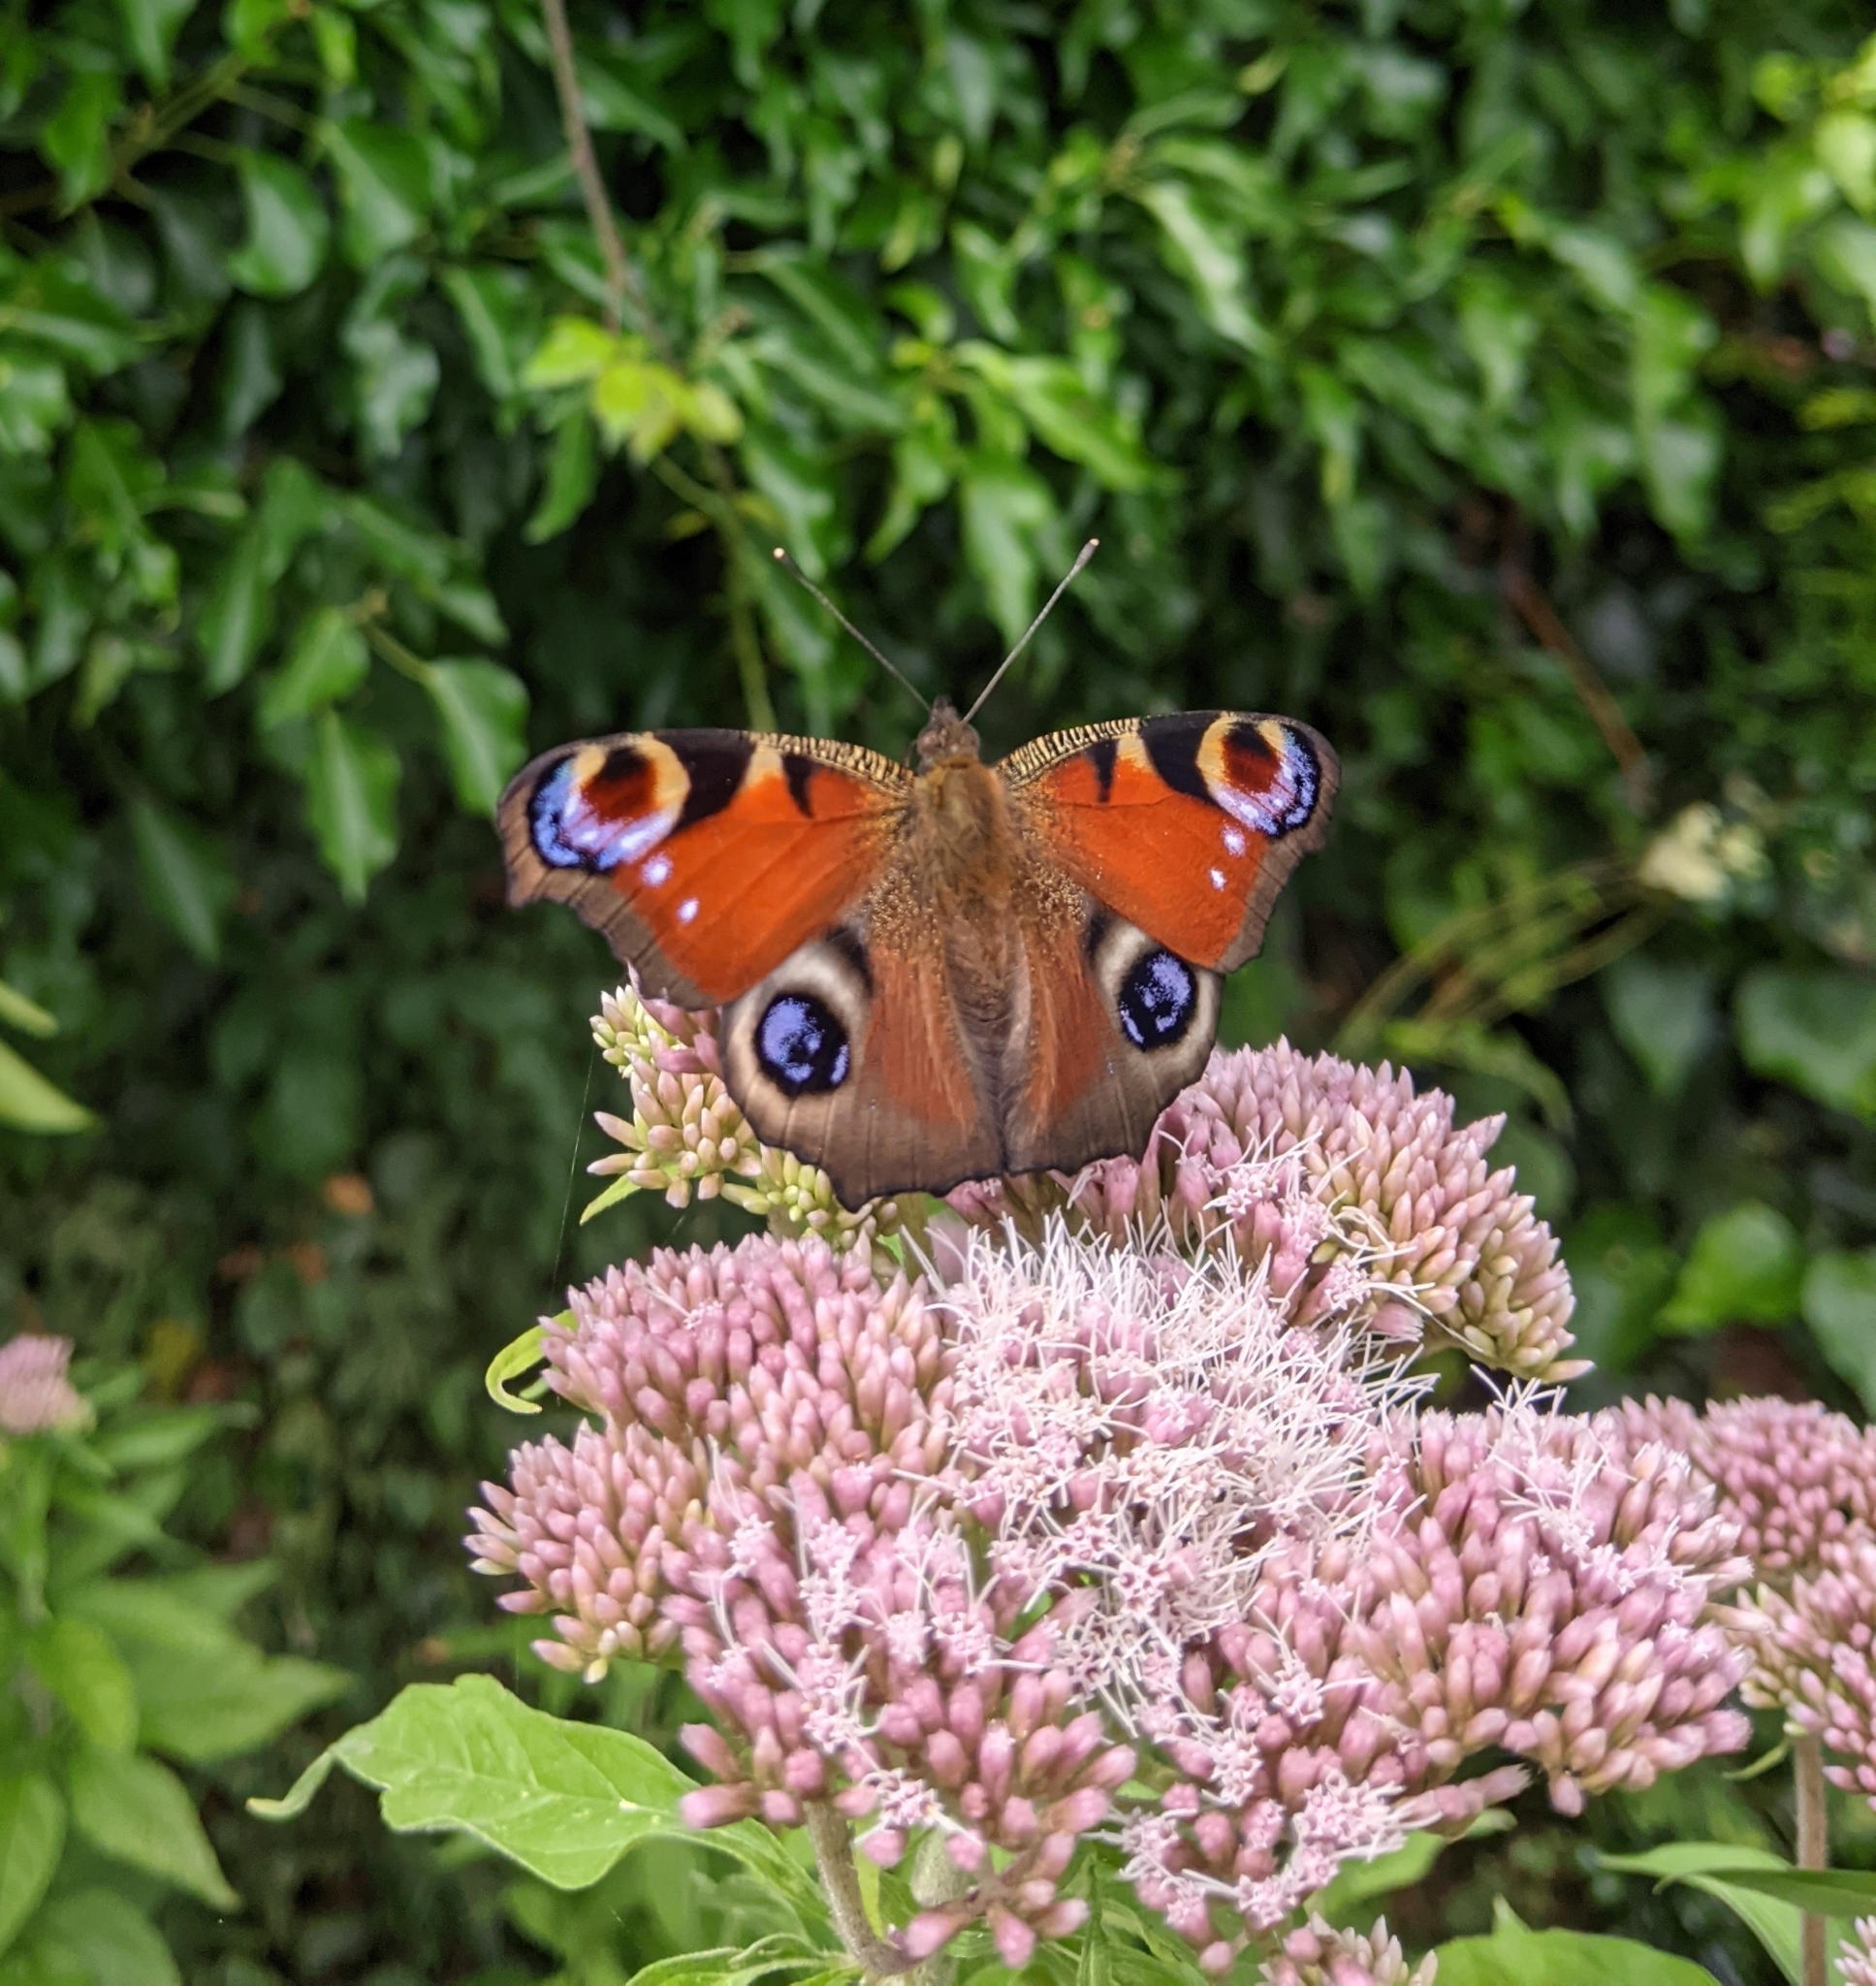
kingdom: Animalia
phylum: Arthropoda
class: Insecta
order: Lepidoptera
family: Nymphalidae
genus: Aglais
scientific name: Aglais io
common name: Peacock
